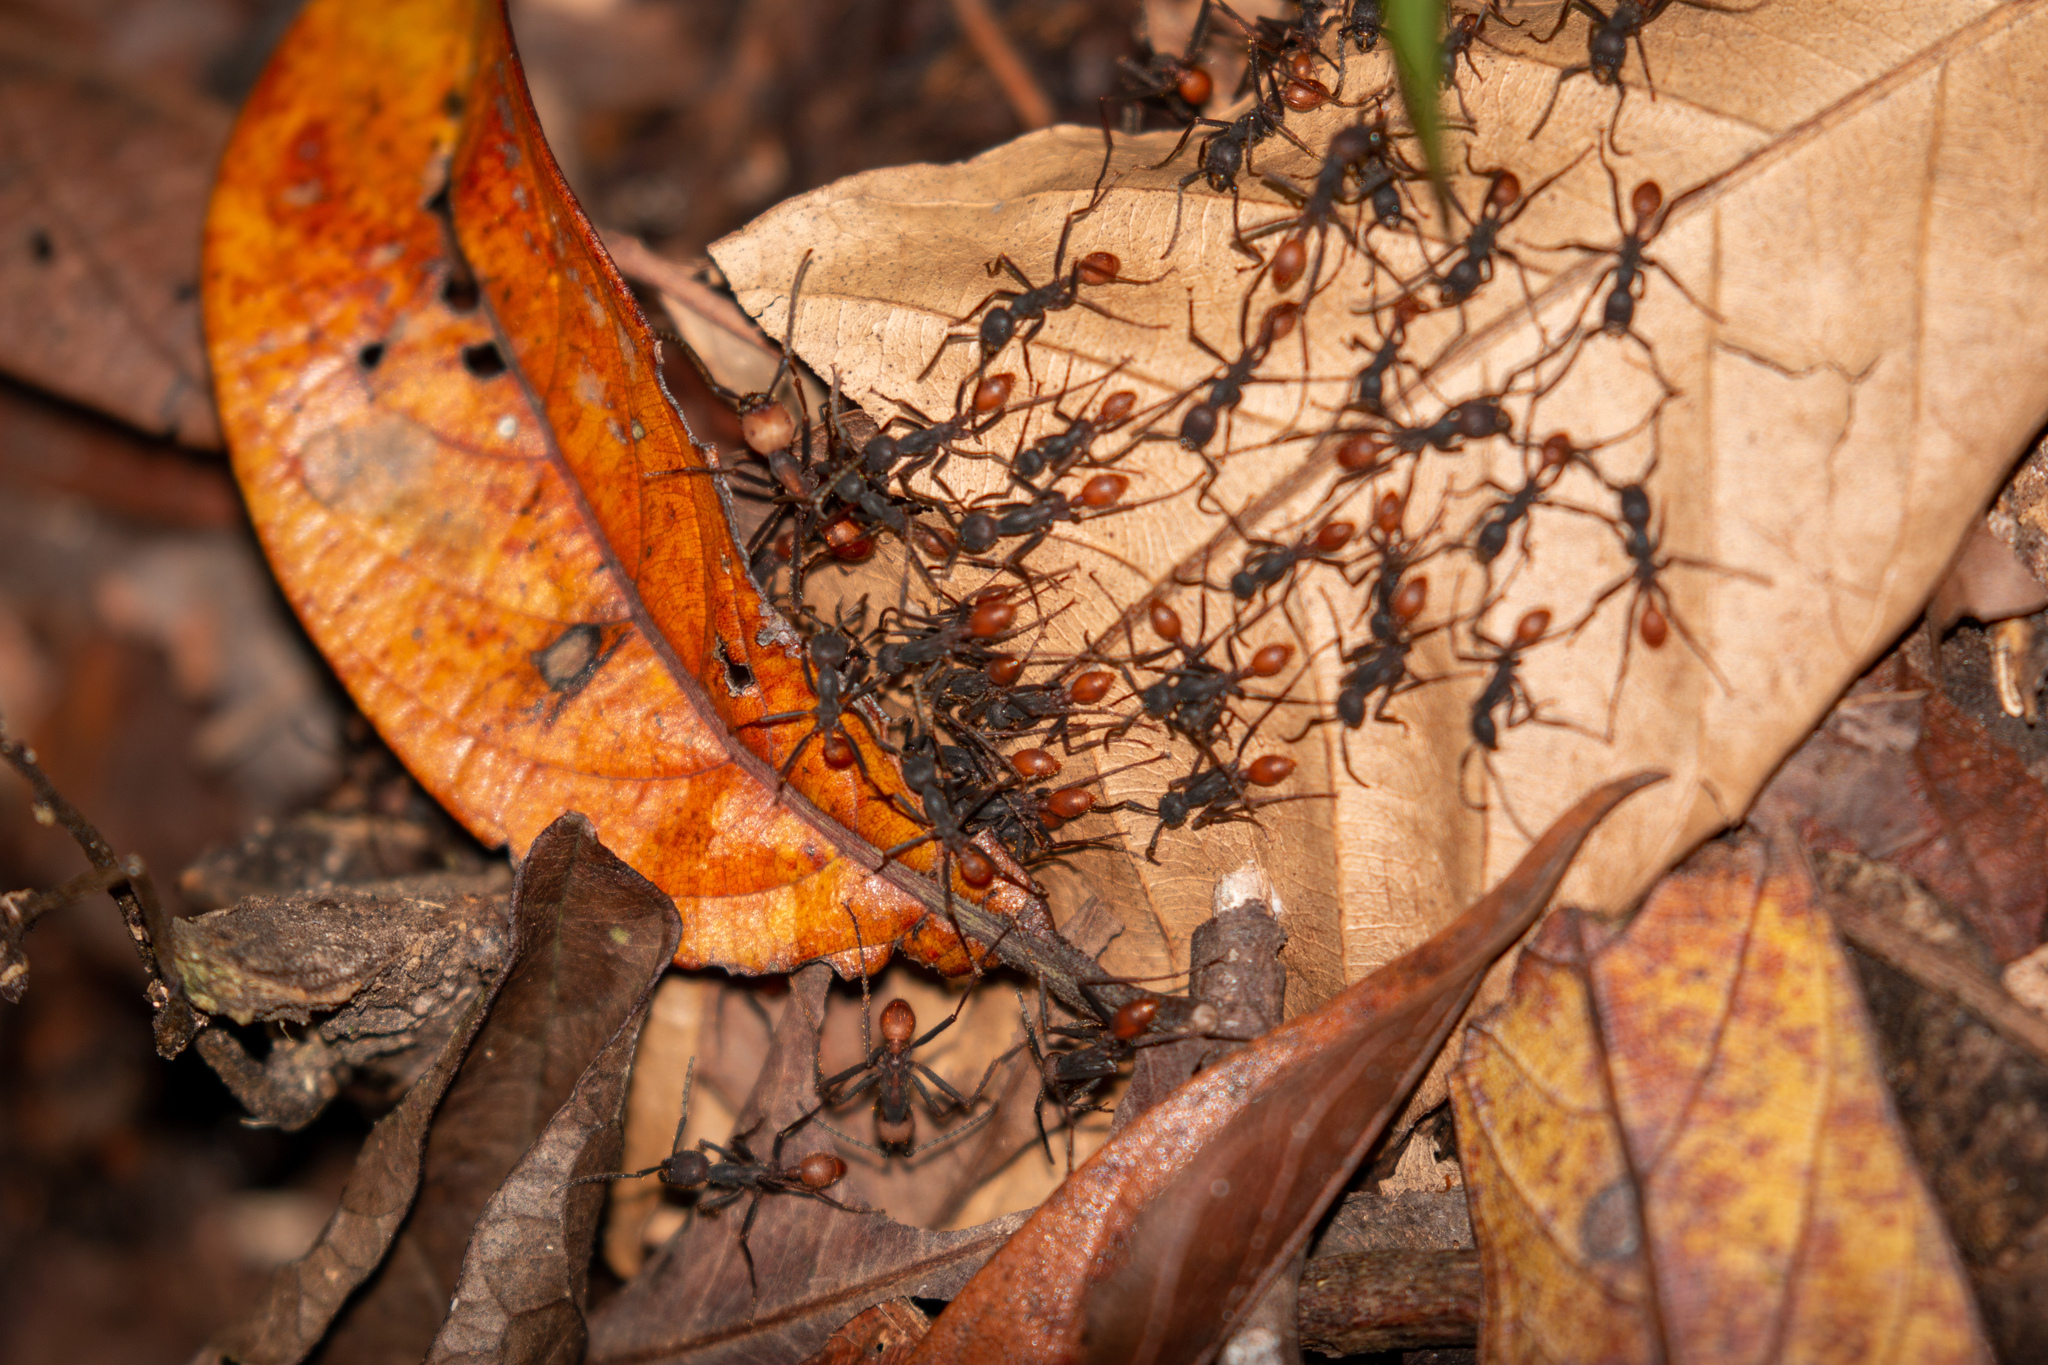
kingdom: Animalia
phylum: Arthropoda
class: Insecta
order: Hymenoptera
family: Formicidae
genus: Eciton
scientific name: Eciton burchellii
